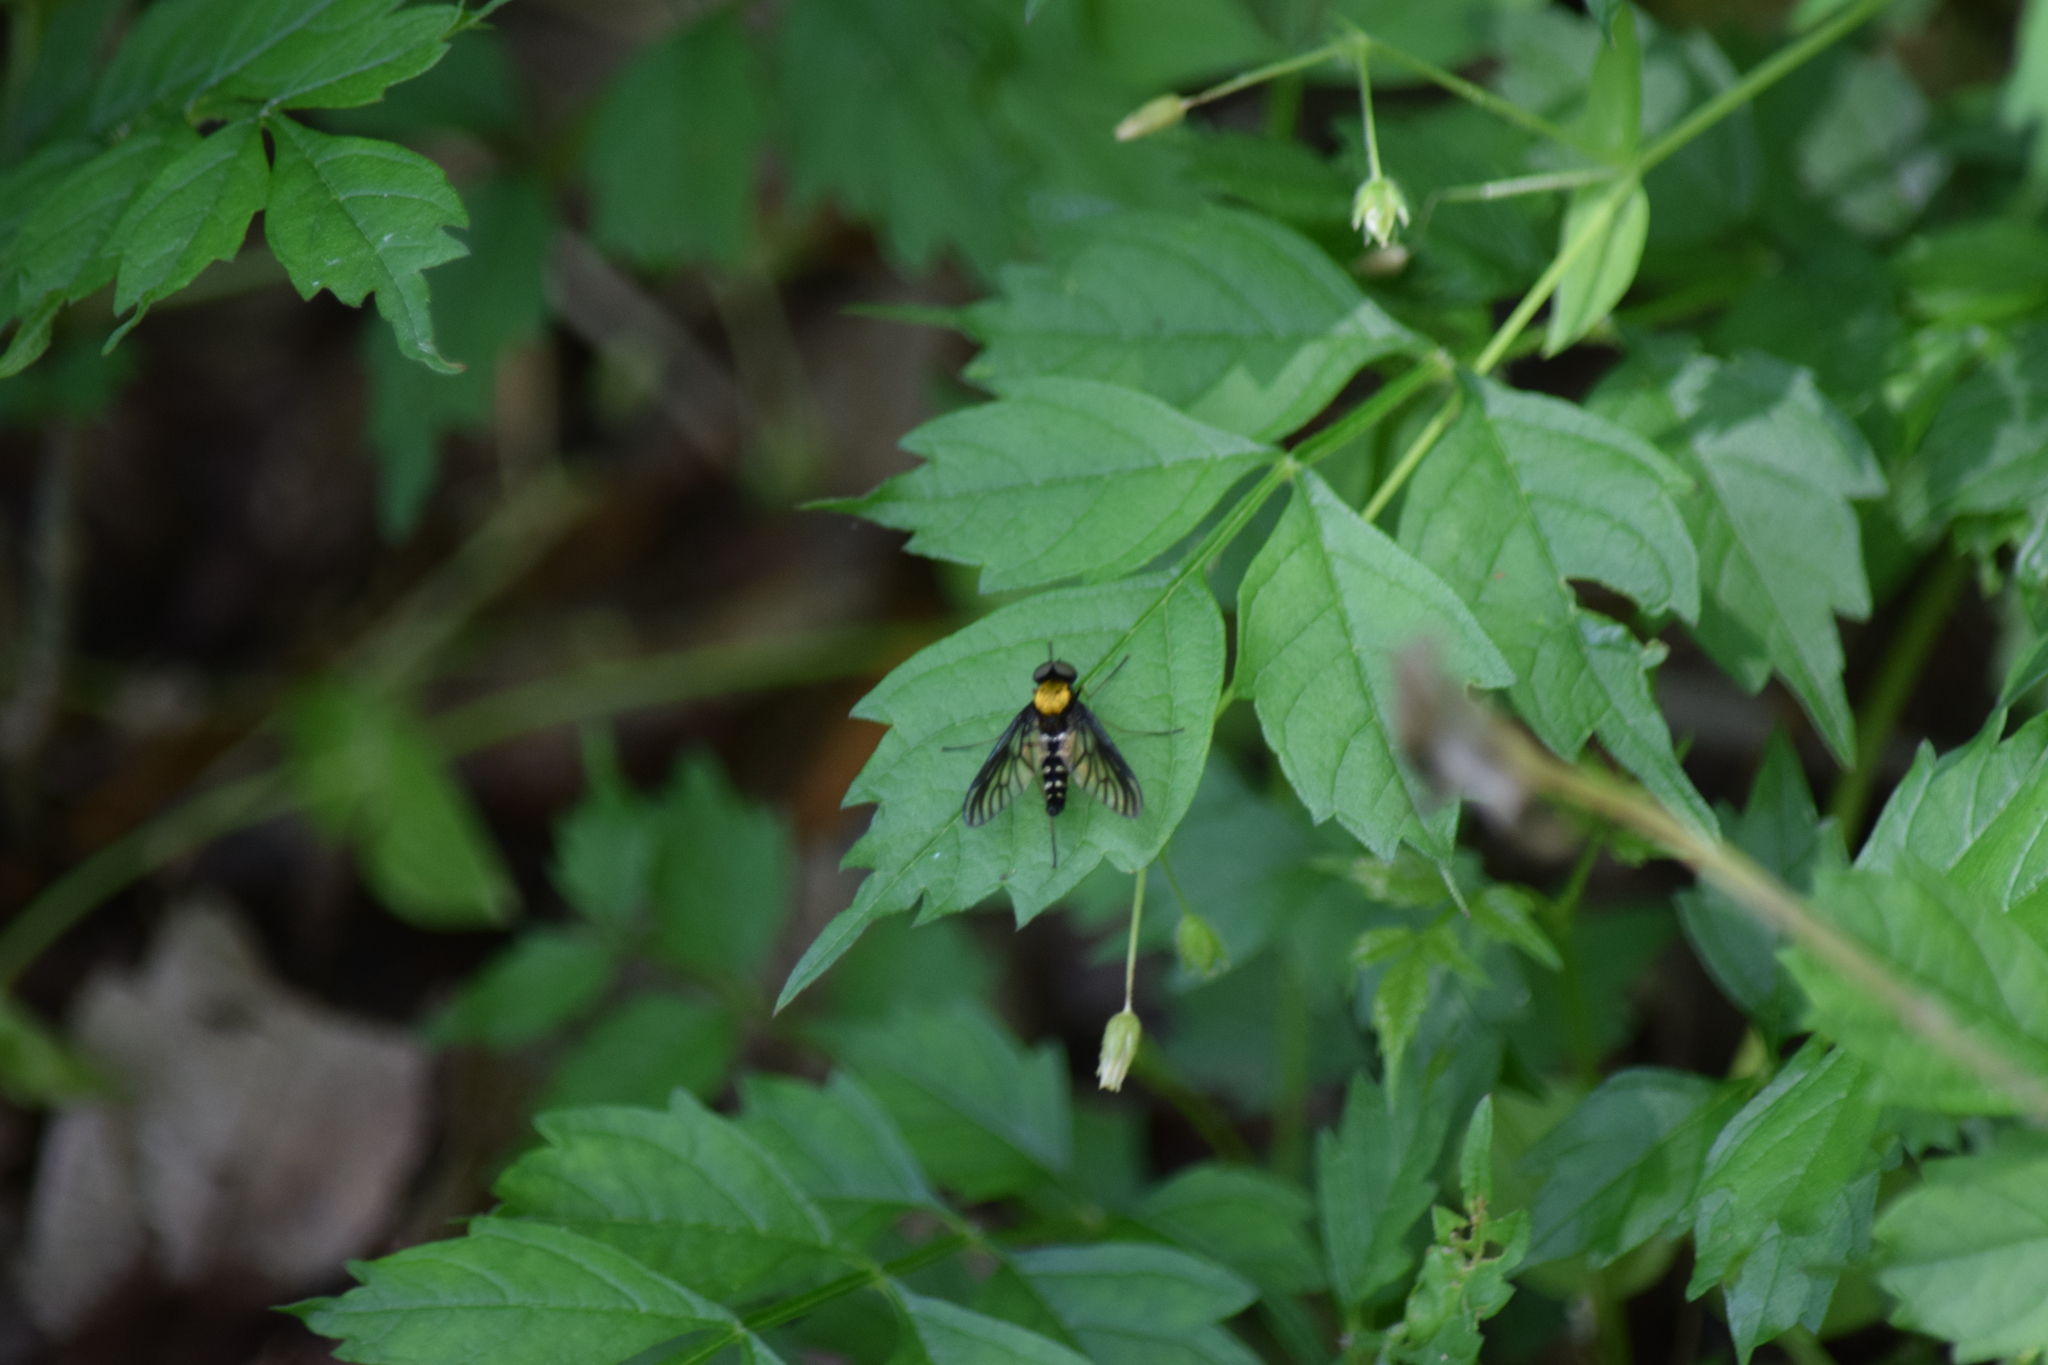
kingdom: Animalia
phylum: Arthropoda
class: Insecta
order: Diptera
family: Rhagionidae
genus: Chrysopilus
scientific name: Chrysopilus thoracicus
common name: Golden-backed snipe fly
